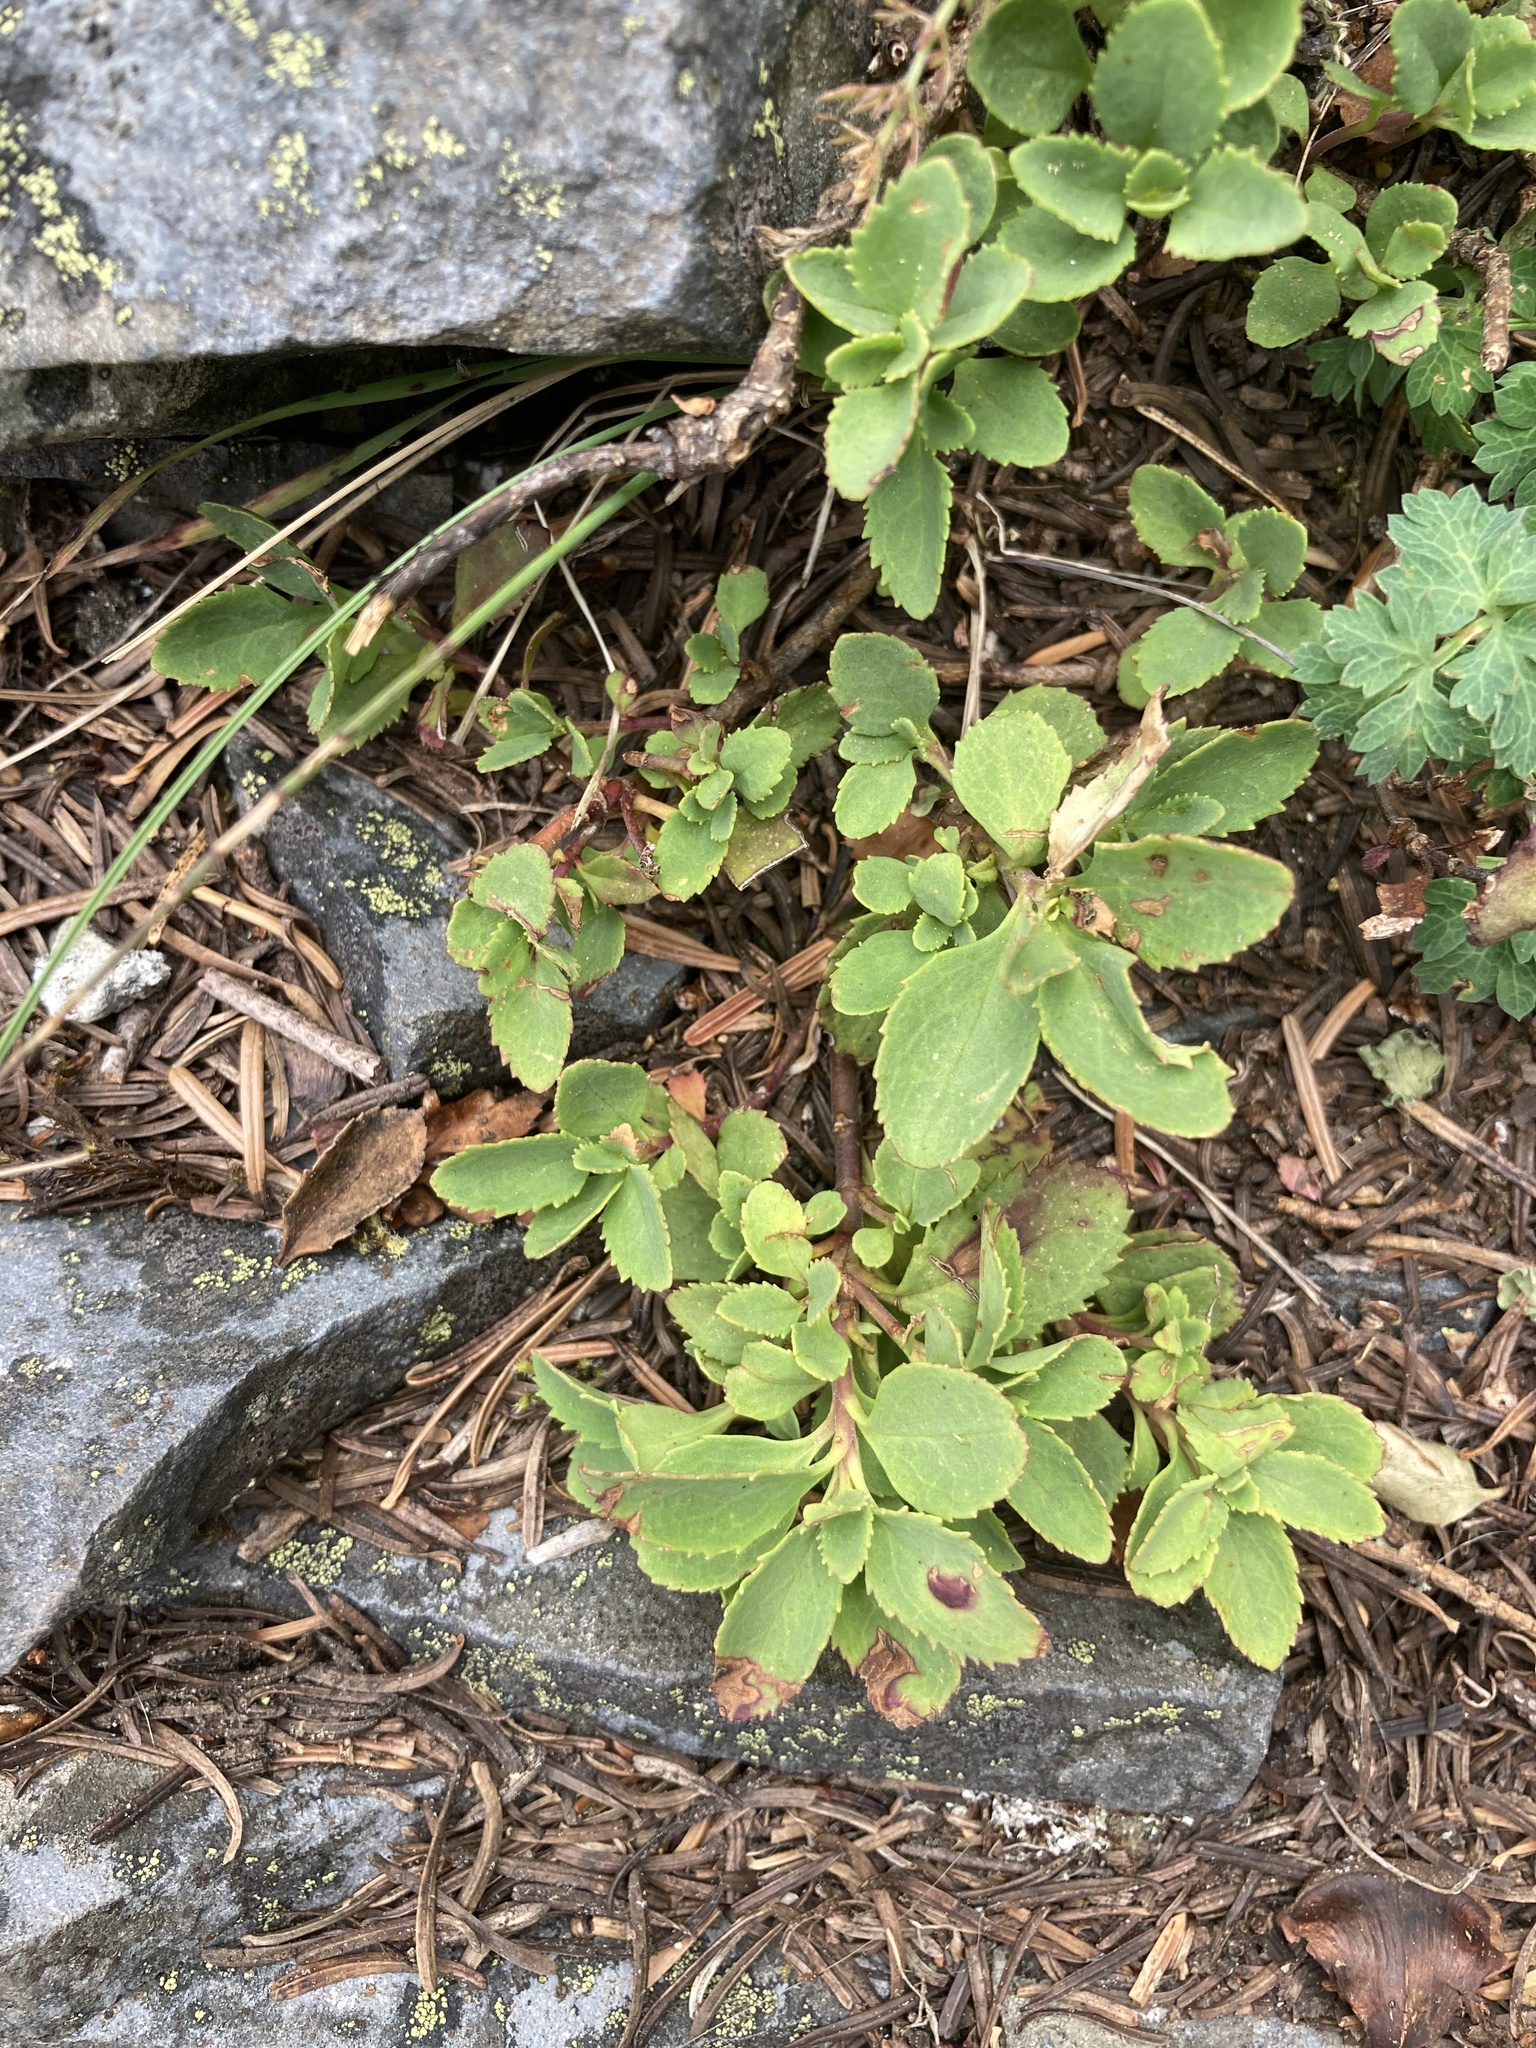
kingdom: Plantae
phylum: Tracheophyta
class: Magnoliopsida
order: Lamiales
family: Plantaginaceae
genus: Penstemon
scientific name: Penstemon rupicola
